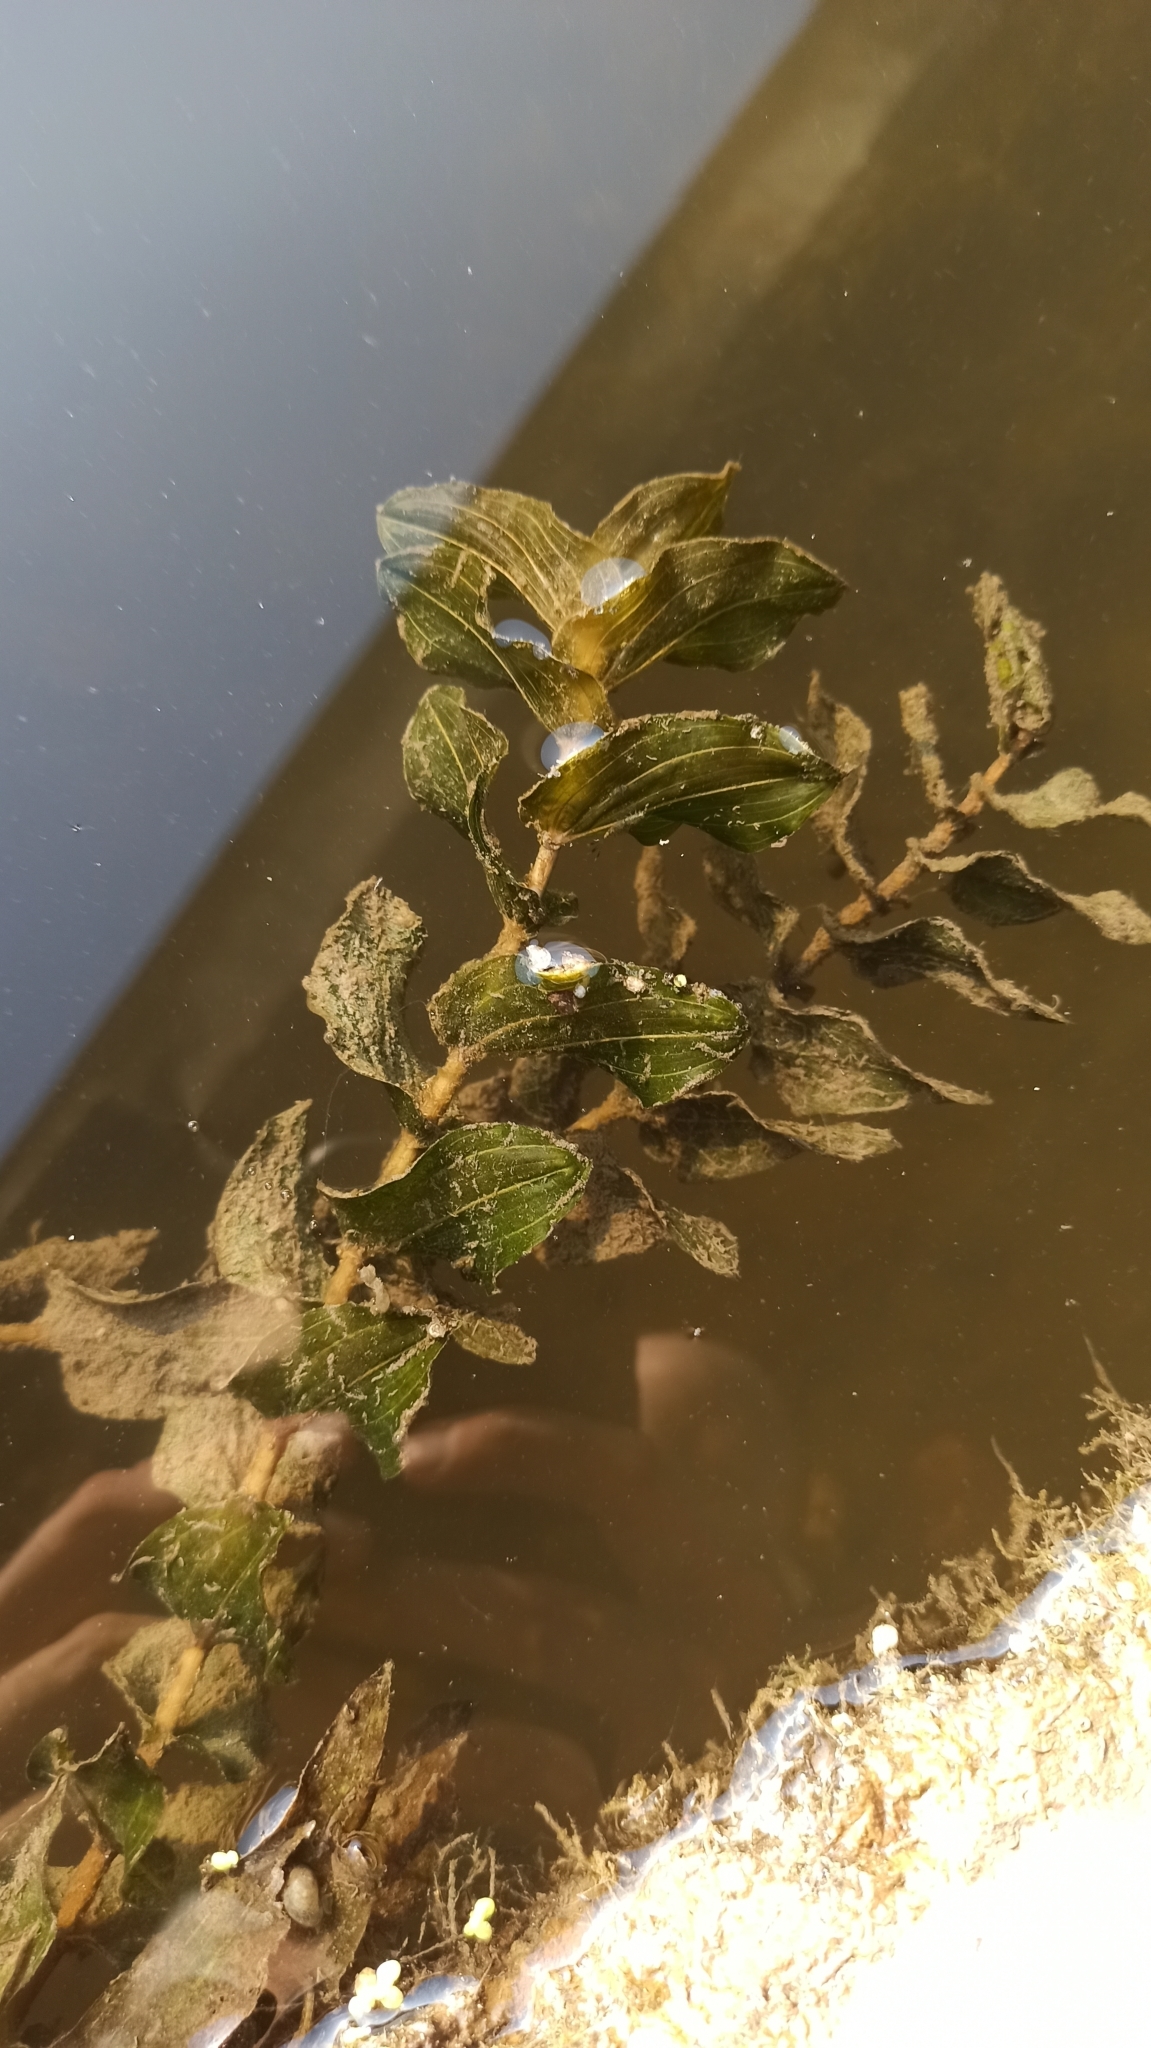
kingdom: Plantae
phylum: Tracheophyta
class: Liliopsida
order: Alismatales
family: Potamogetonaceae
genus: Potamogeton
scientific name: Potamogeton perfoliatus
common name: Perfoliate pondweed
